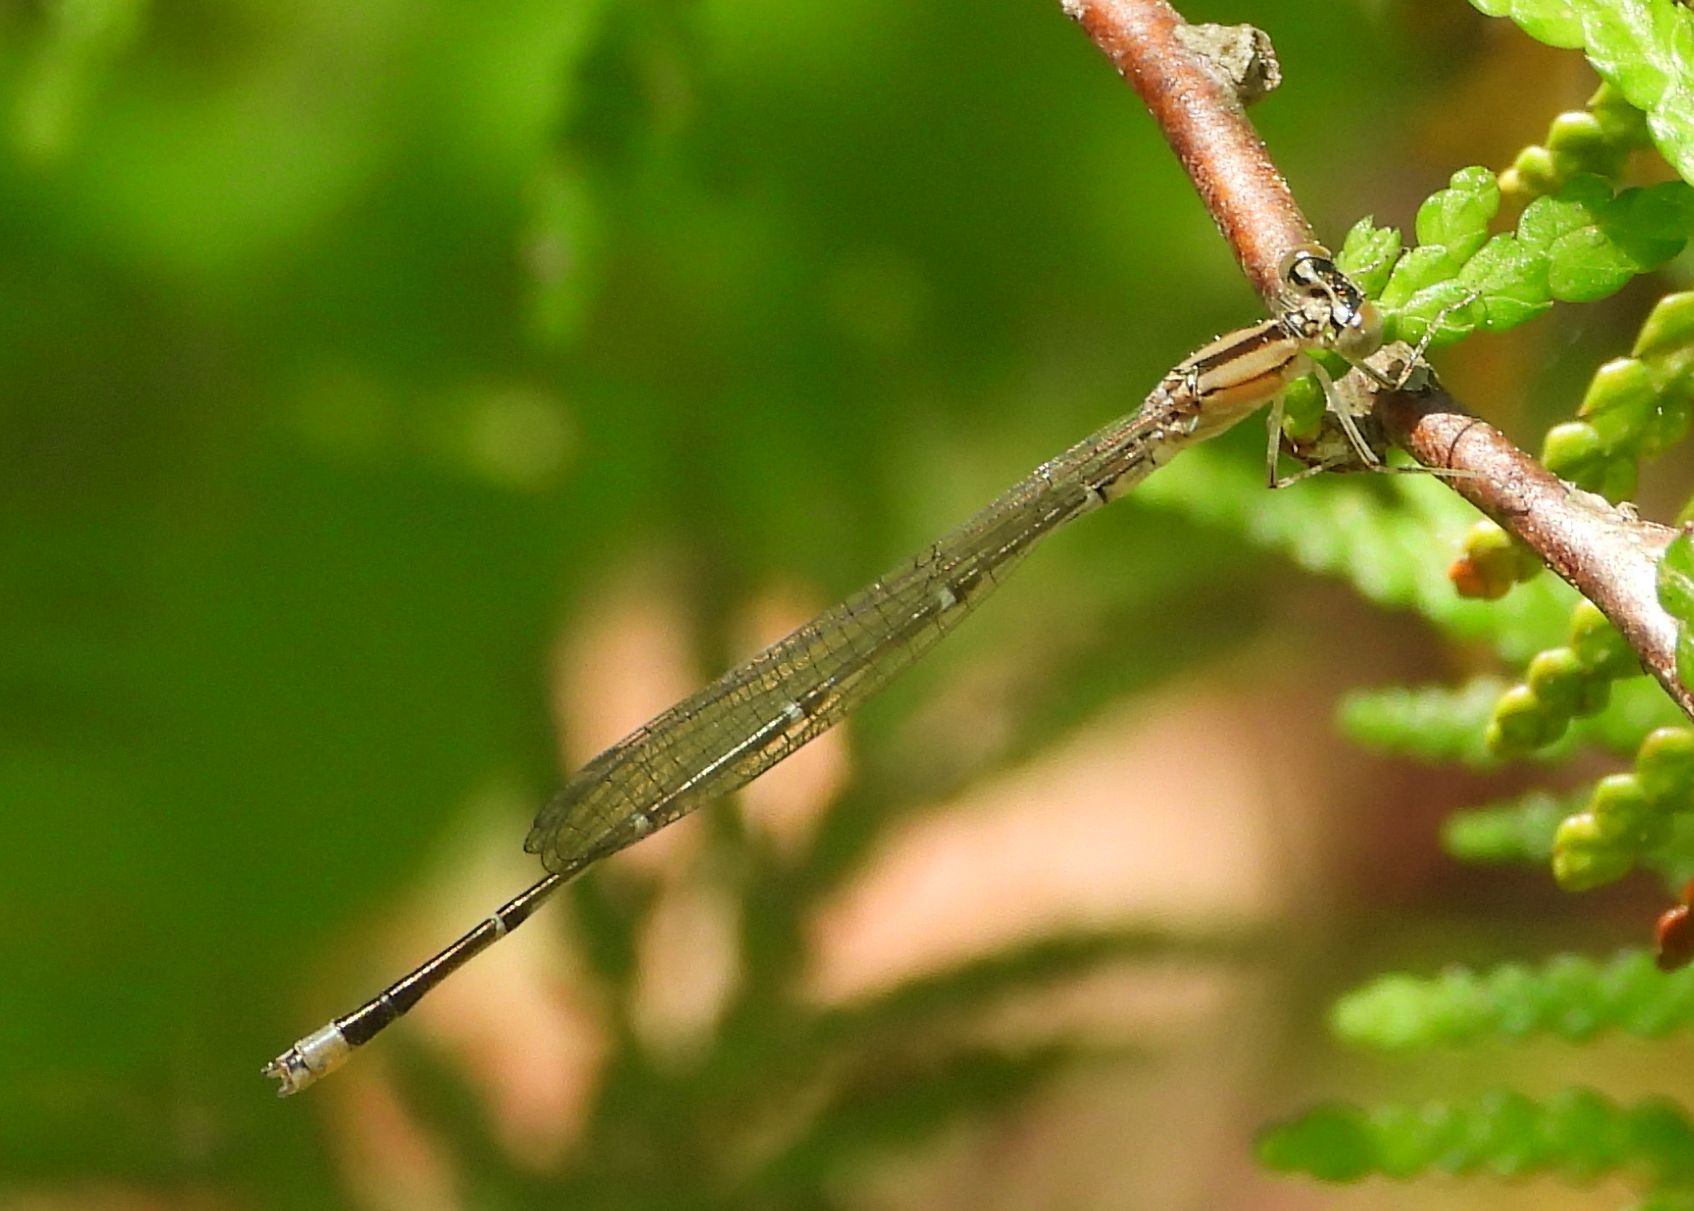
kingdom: Animalia
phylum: Arthropoda
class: Insecta
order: Odonata
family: Coenagrionidae
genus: Enallagma
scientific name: Enallagma vesperum
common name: Vesper bluet
